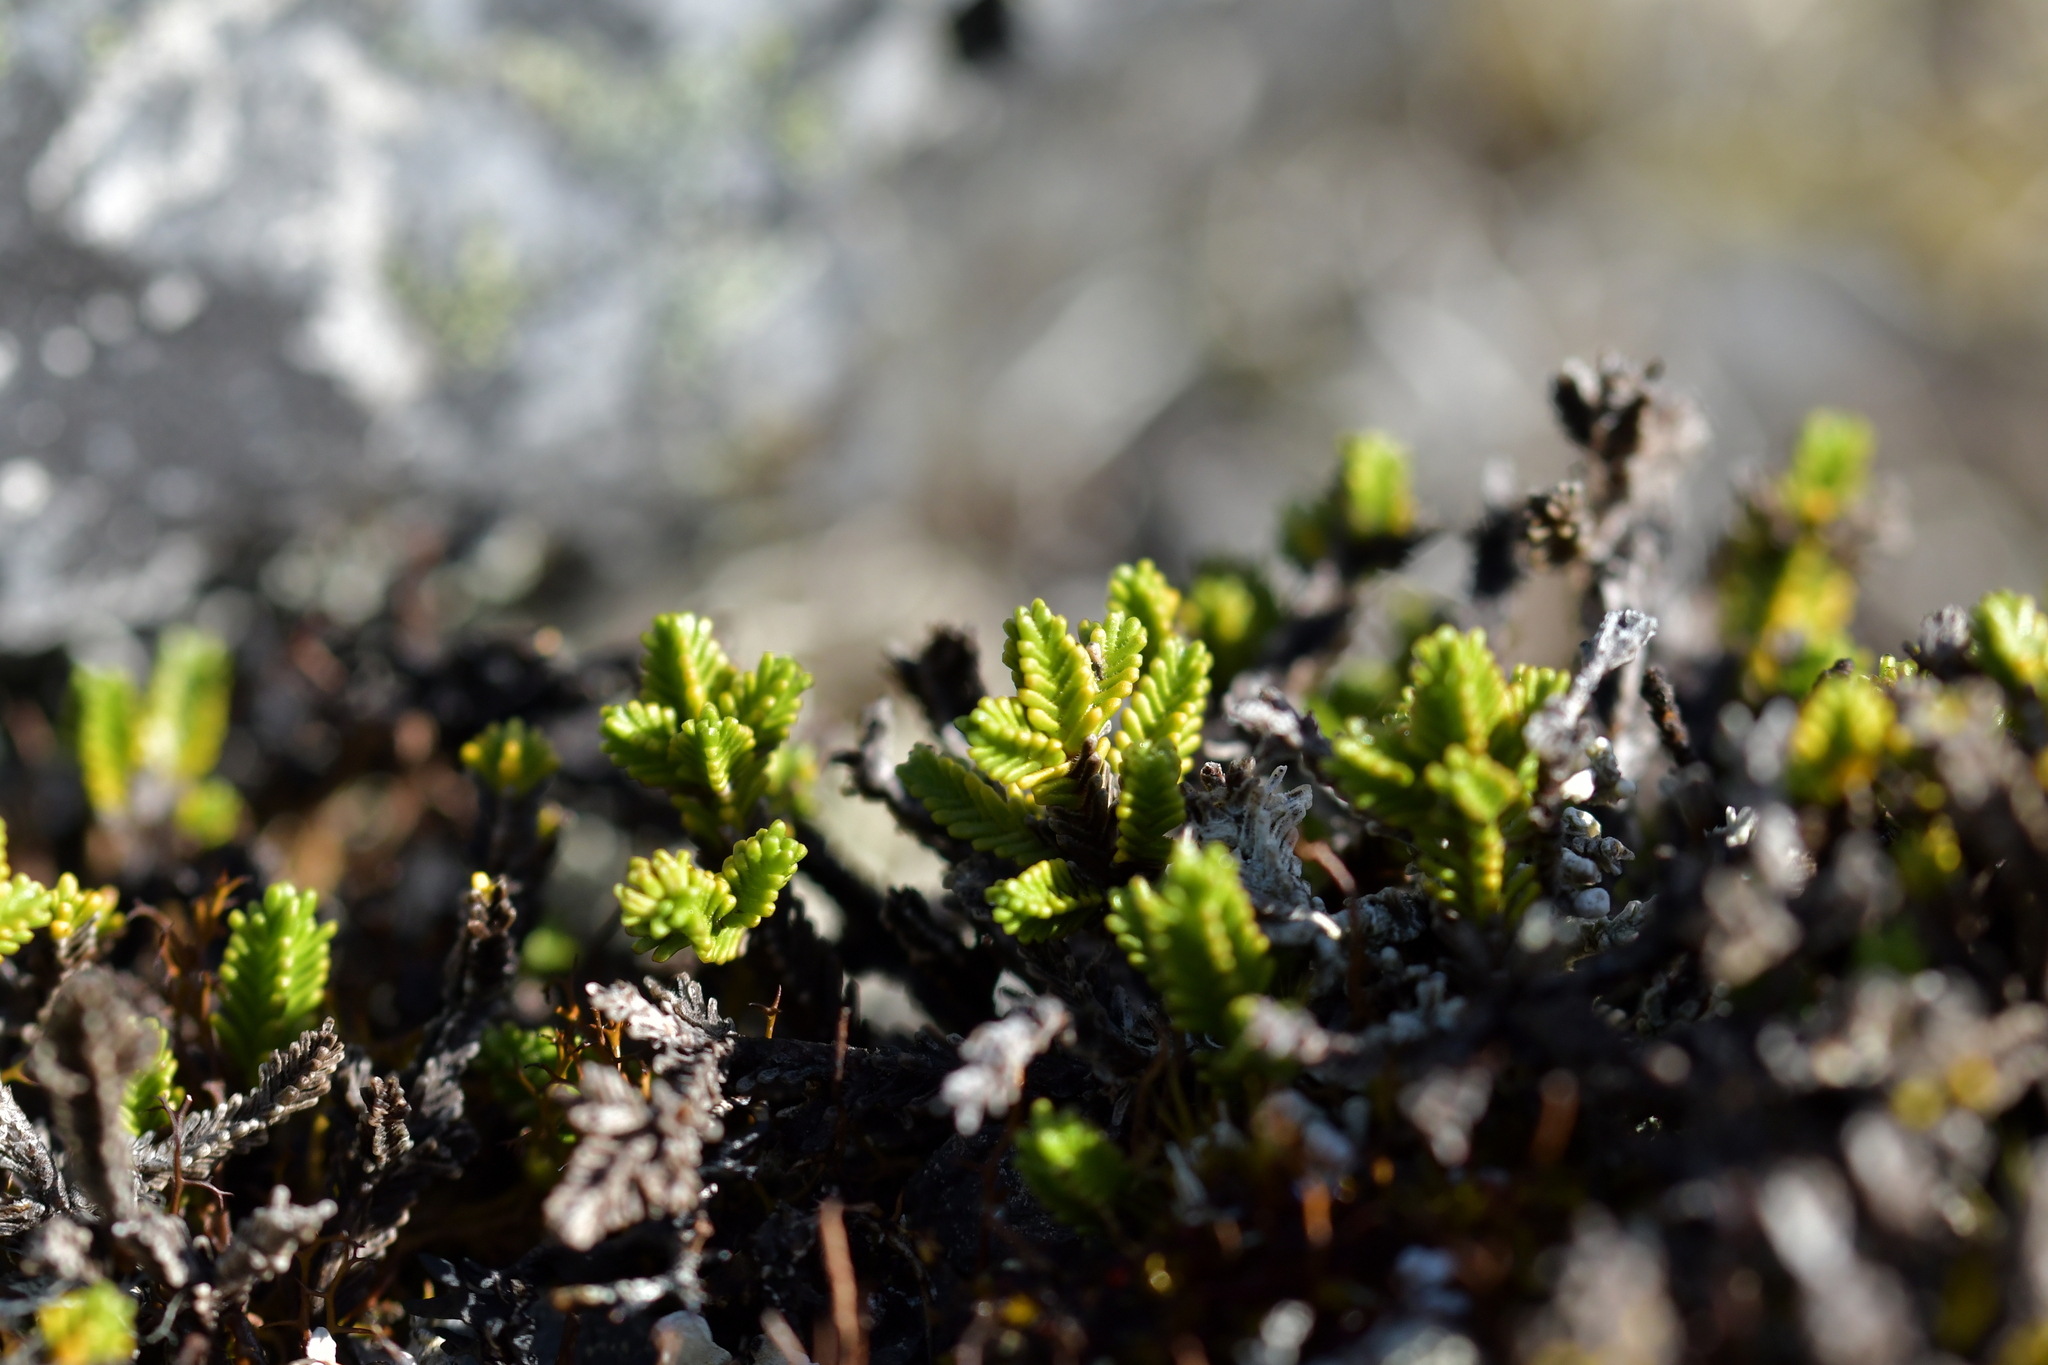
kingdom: Plantae
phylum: Tracheophyta
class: Magnoliopsida
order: Lamiales
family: Plantaginaceae
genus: Veronica
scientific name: Veronica hookeri
